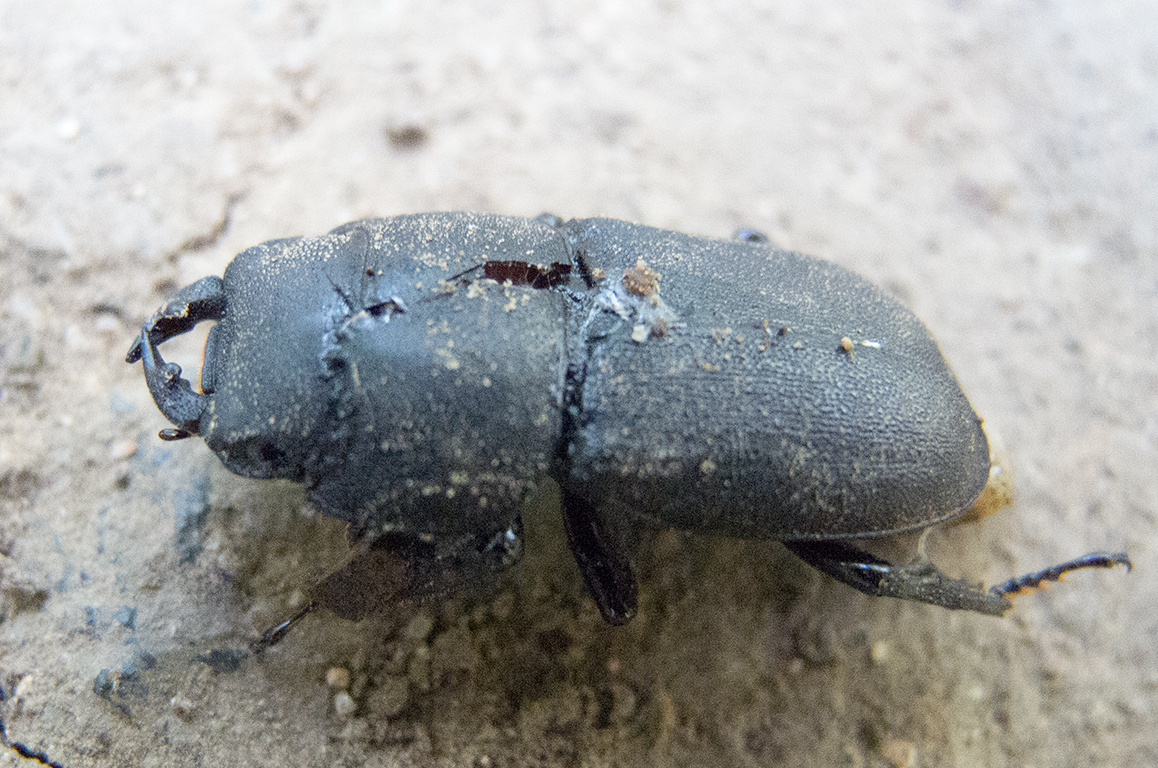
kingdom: Animalia
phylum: Arthropoda
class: Insecta
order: Coleoptera
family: Lucanidae
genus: Dorcus
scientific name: Dorcus parallelipipedus
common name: Lesser stag beetle
